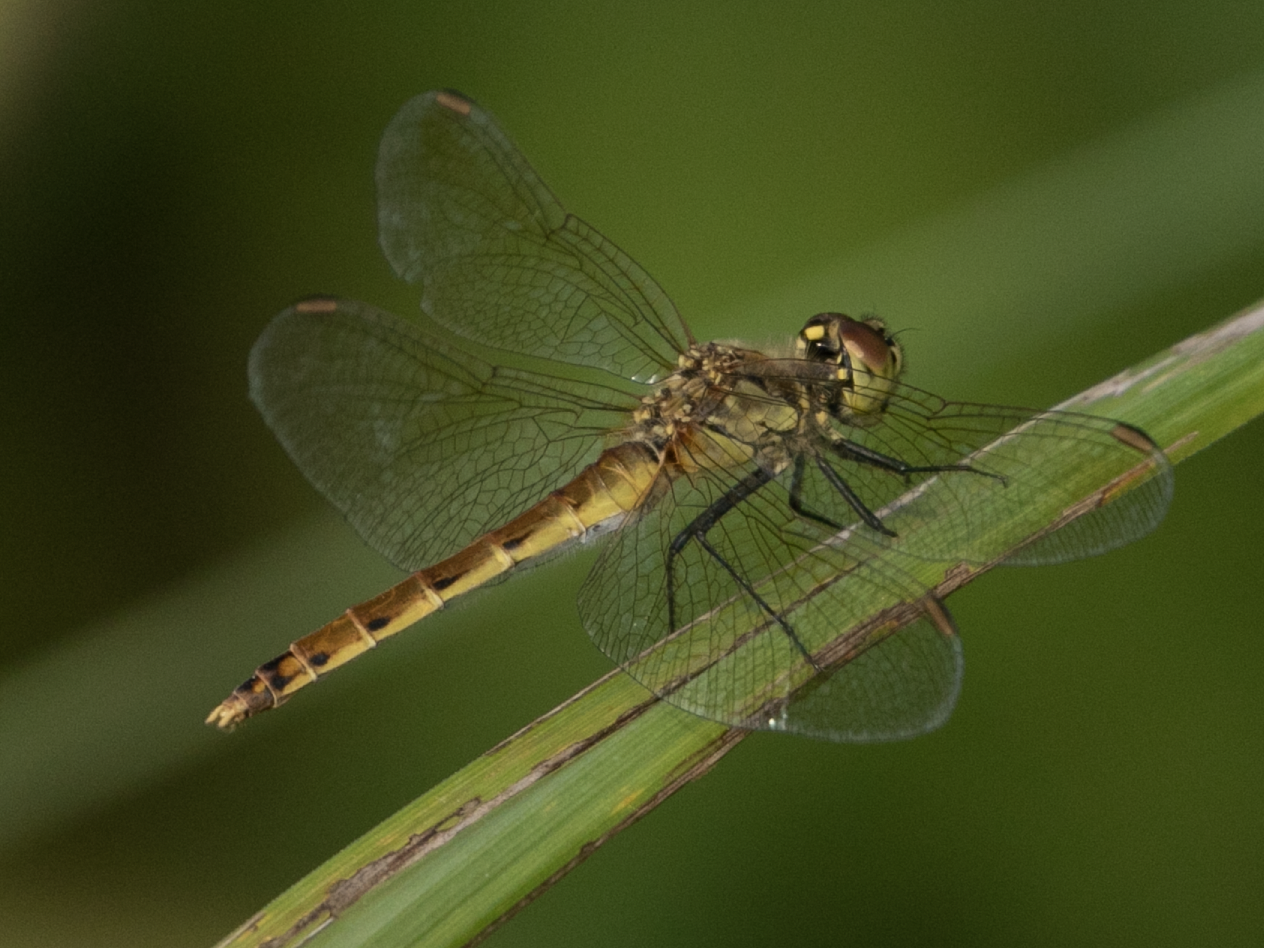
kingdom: Animalia
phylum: Arthropoda
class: Insecta
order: Odonata
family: Libellulidae
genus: Sympetrum
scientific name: Sympetrum depressiusculum
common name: Spotted darter
